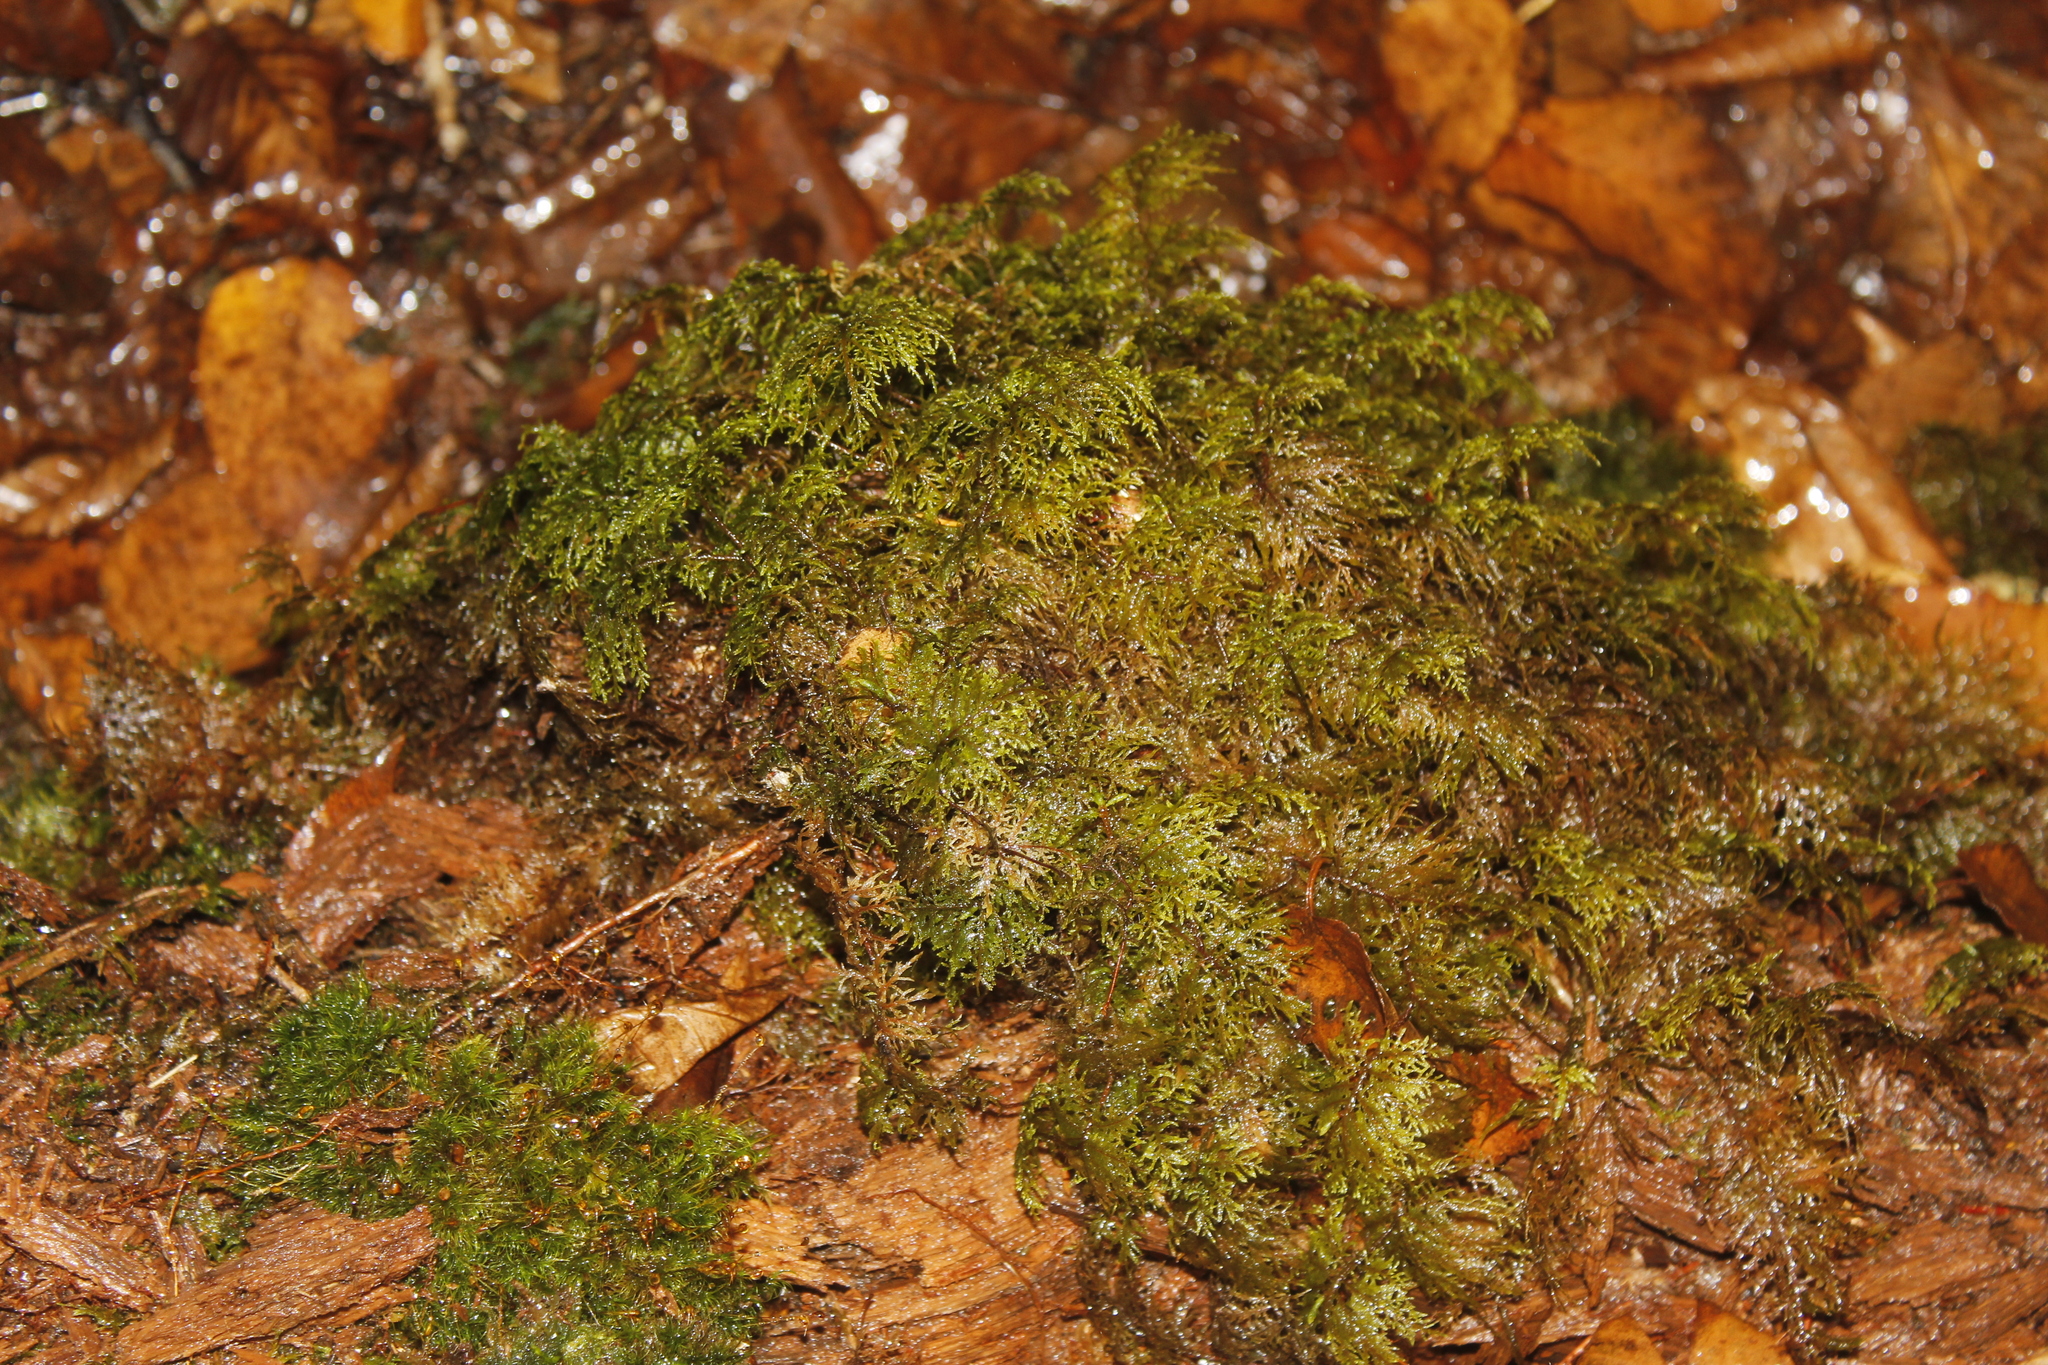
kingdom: Plantae
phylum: Bryophyta
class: Bryopsida
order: Hypnales
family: Hylocomiaceae
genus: Hylocomium
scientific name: Hylocomium splendens
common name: Stairstep moss
